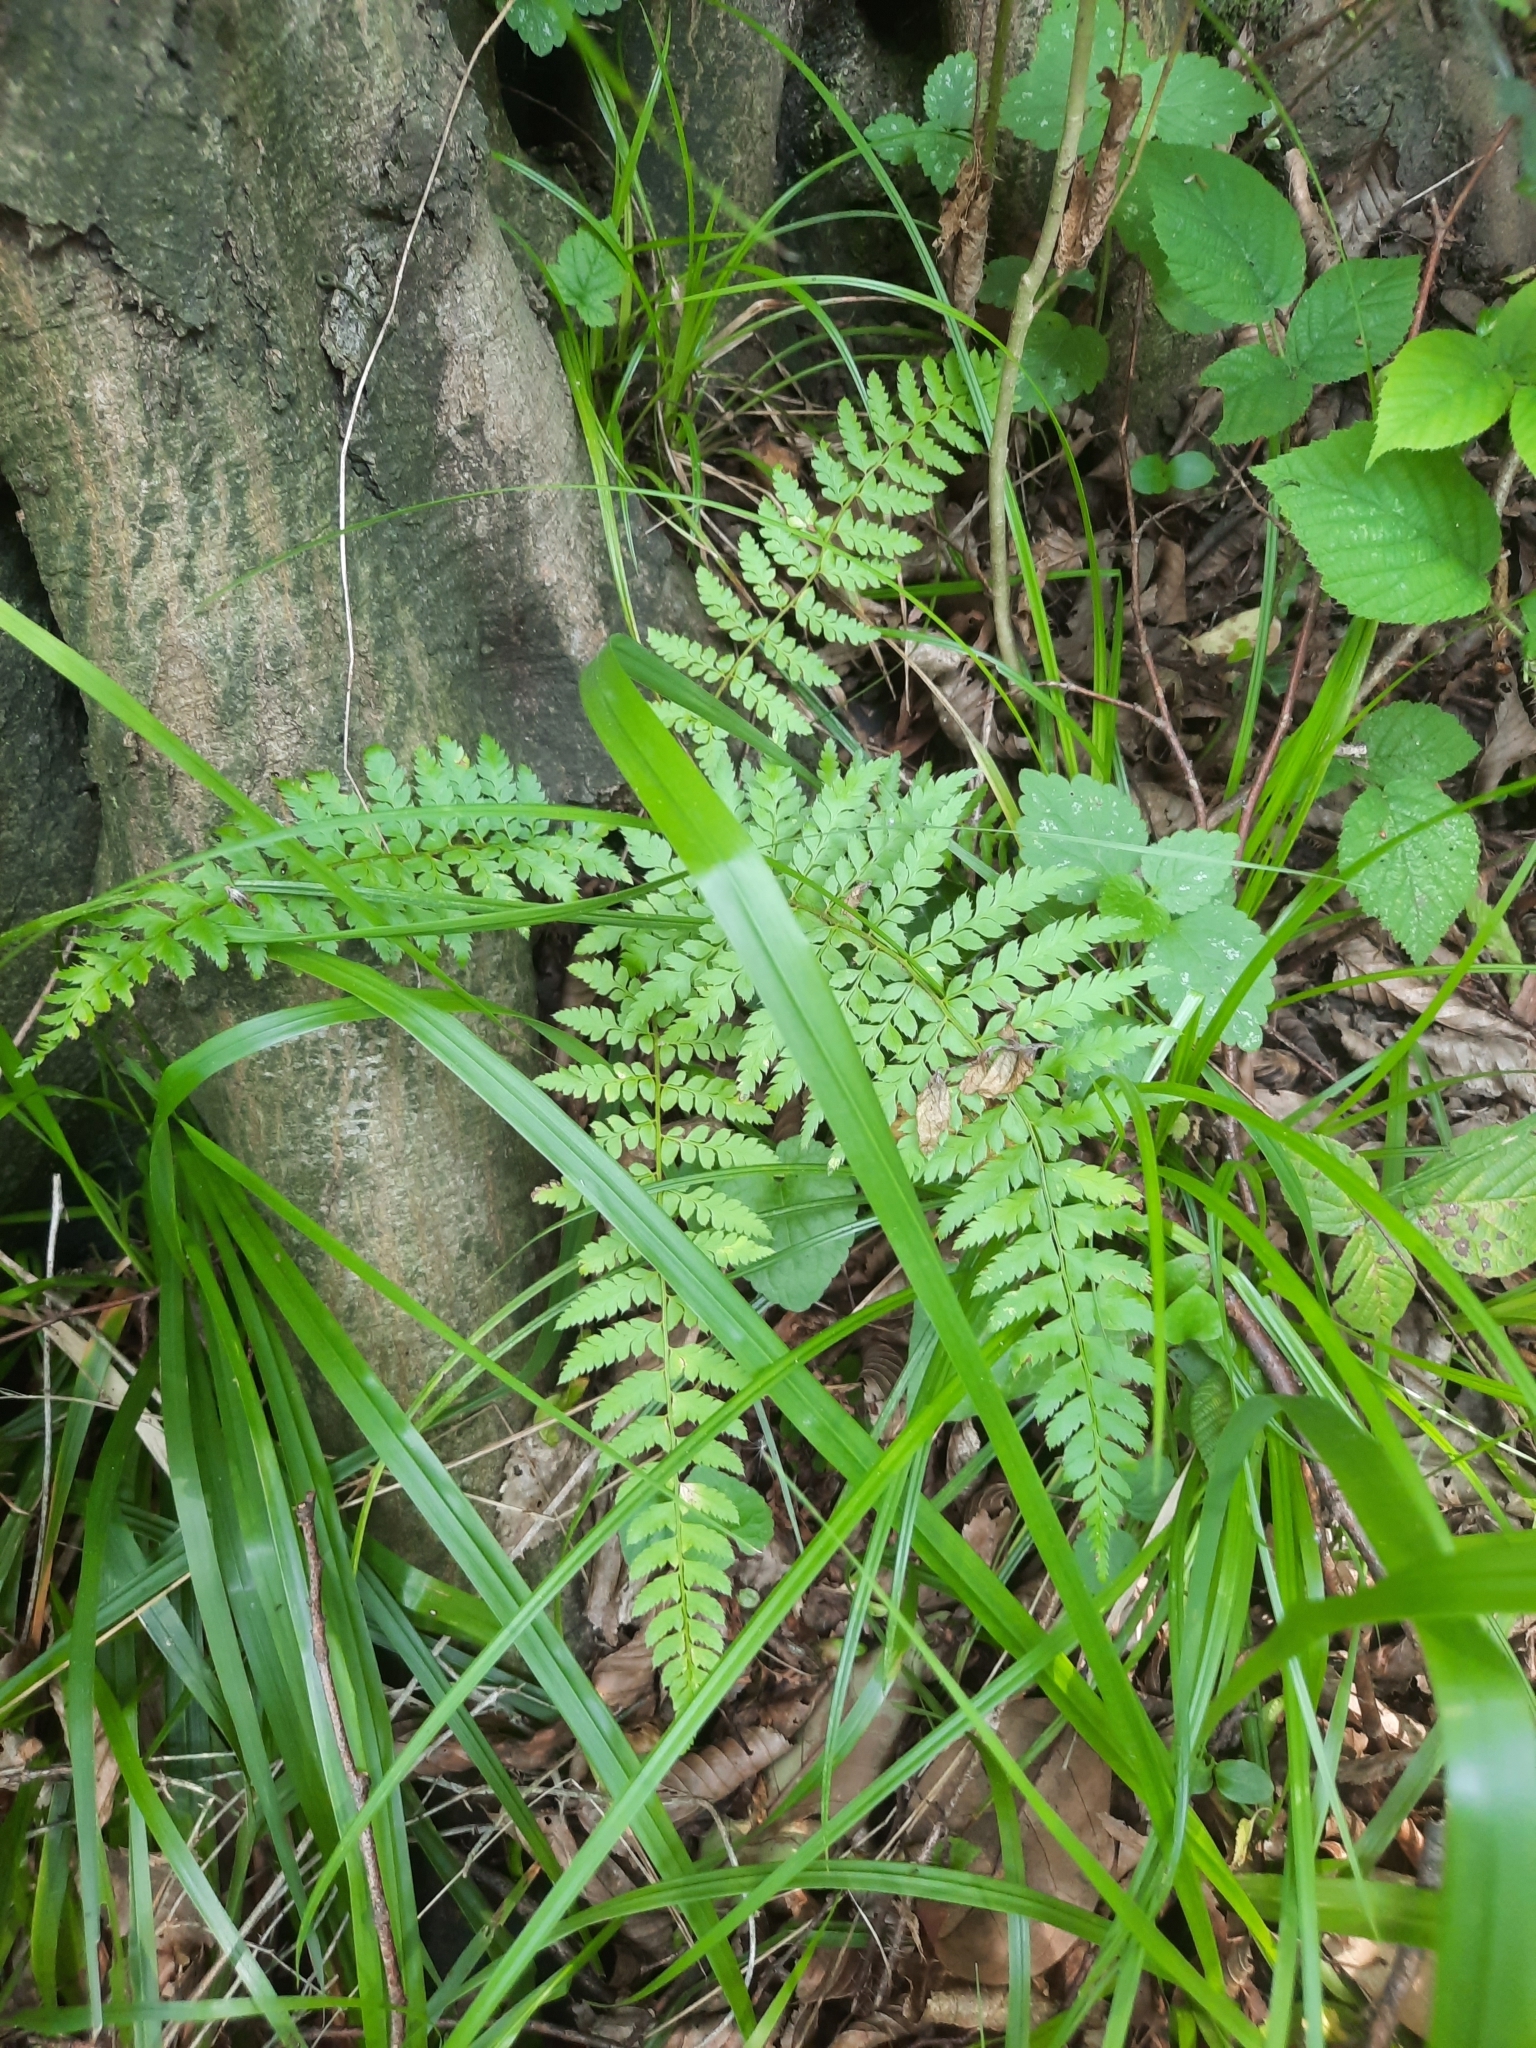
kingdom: Plantae
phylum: Tracheophyta
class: Polypodiopsida
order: Polypodiales
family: Dryopteridaceae
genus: Polystichum
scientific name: Polystichum setiferum
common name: Soft shield-fern
